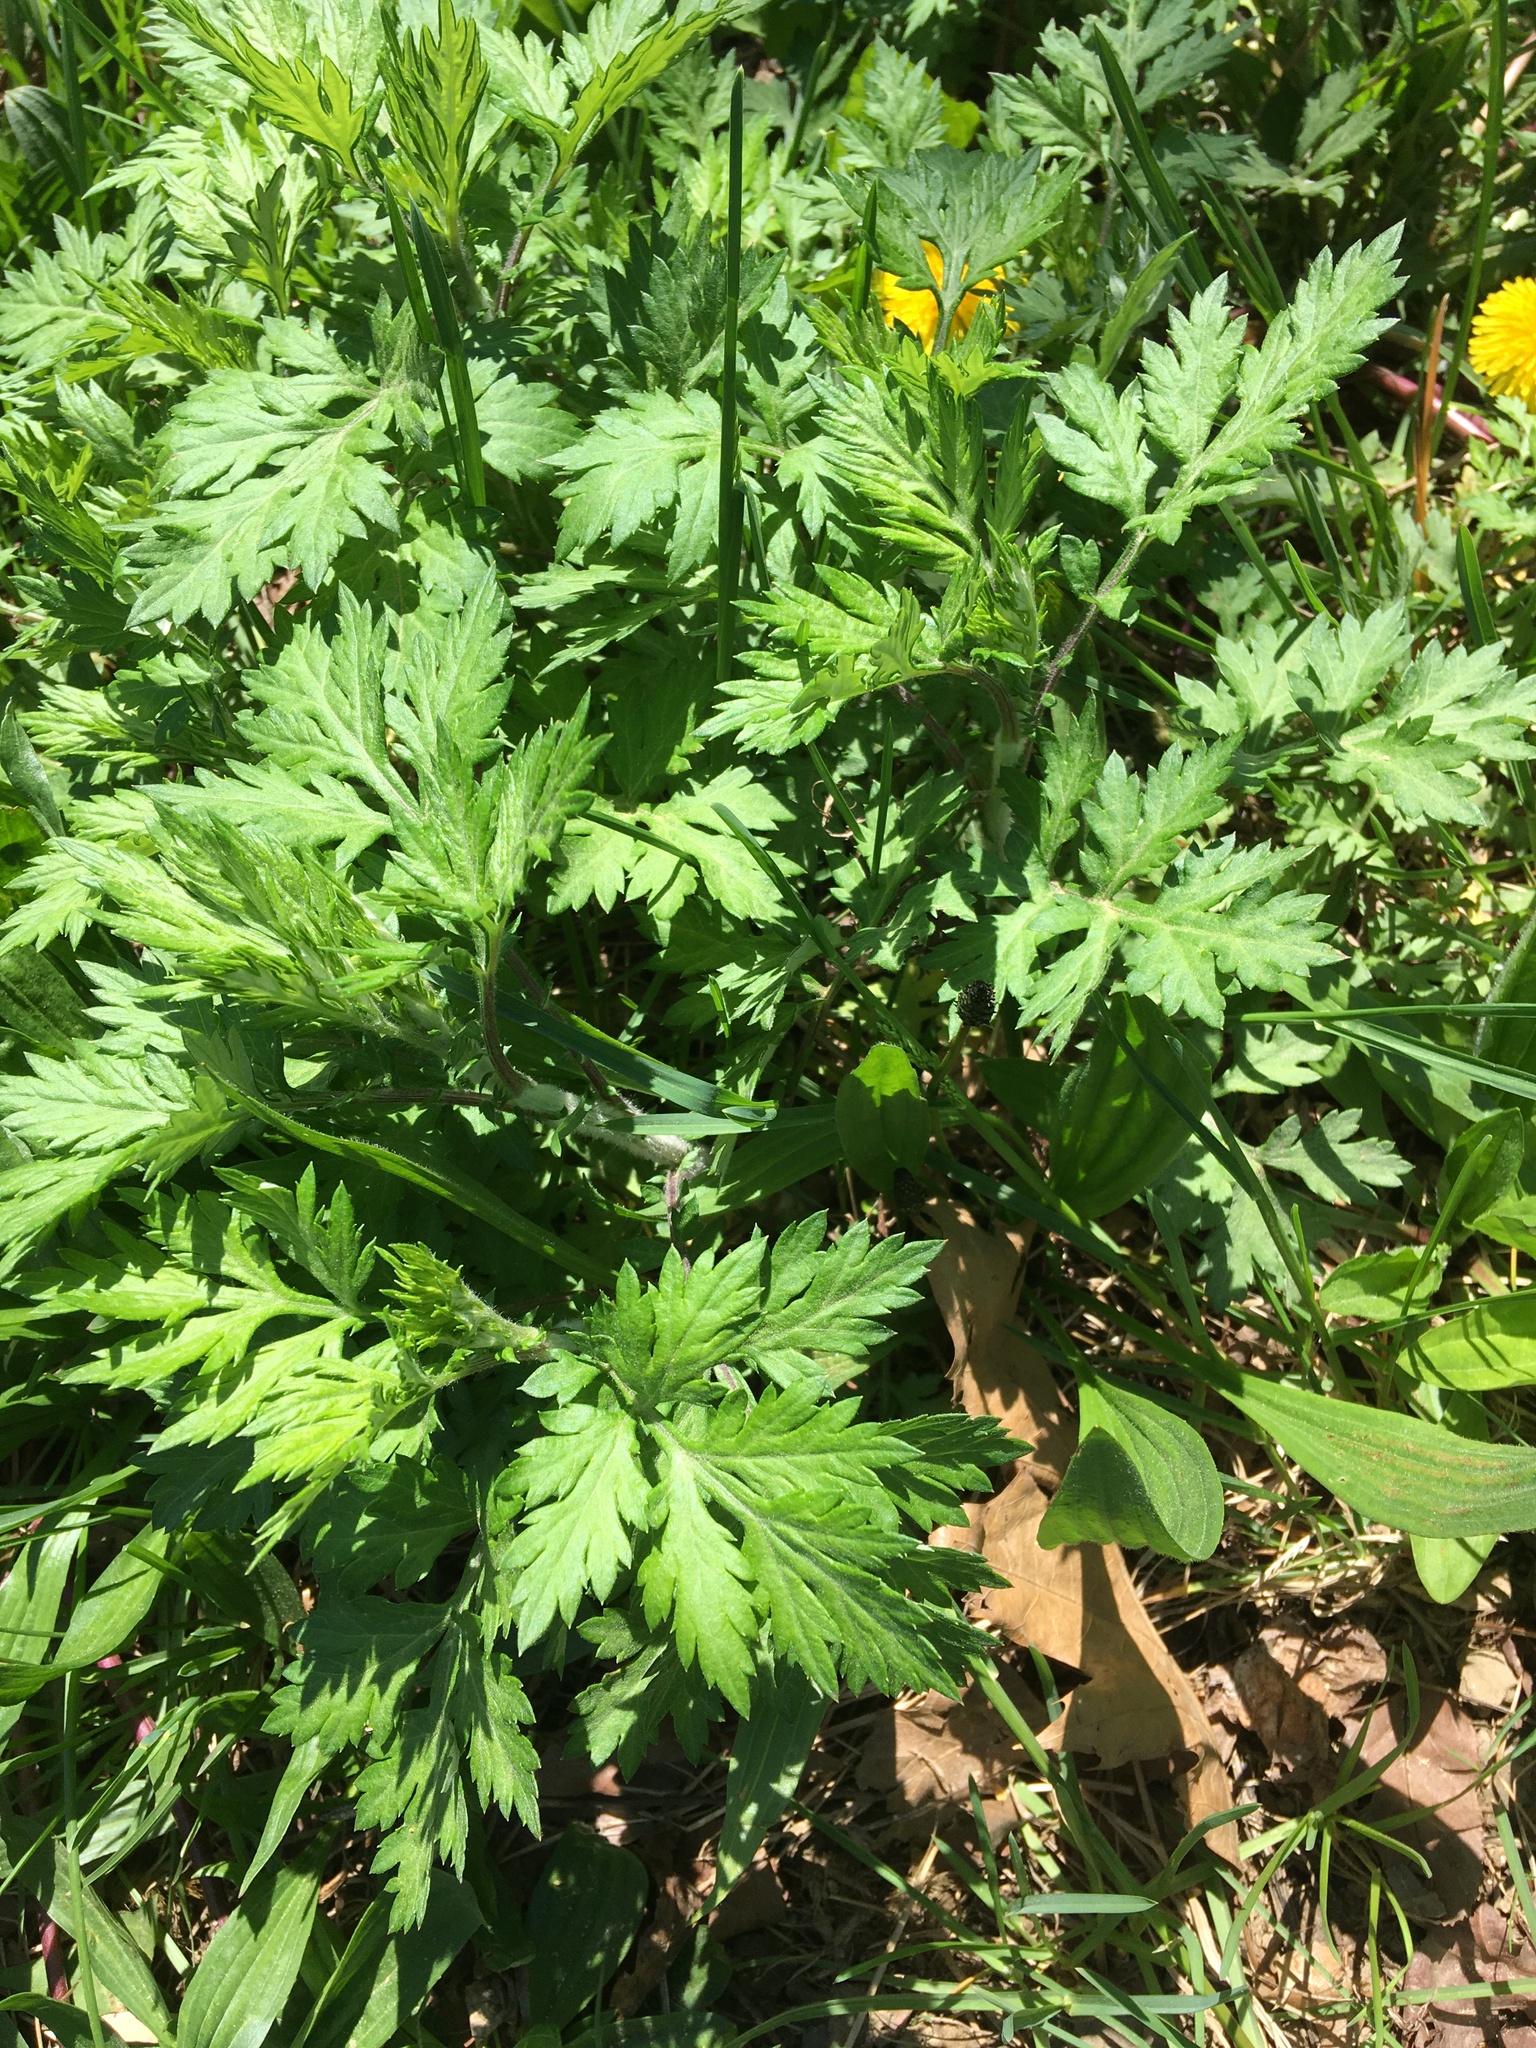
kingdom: Plantae
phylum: Tracheophyta
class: Magnoliopsida
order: Asterales
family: Asteraceae
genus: Artemisia
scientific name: Artemisia vulgaris
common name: Mugwort
